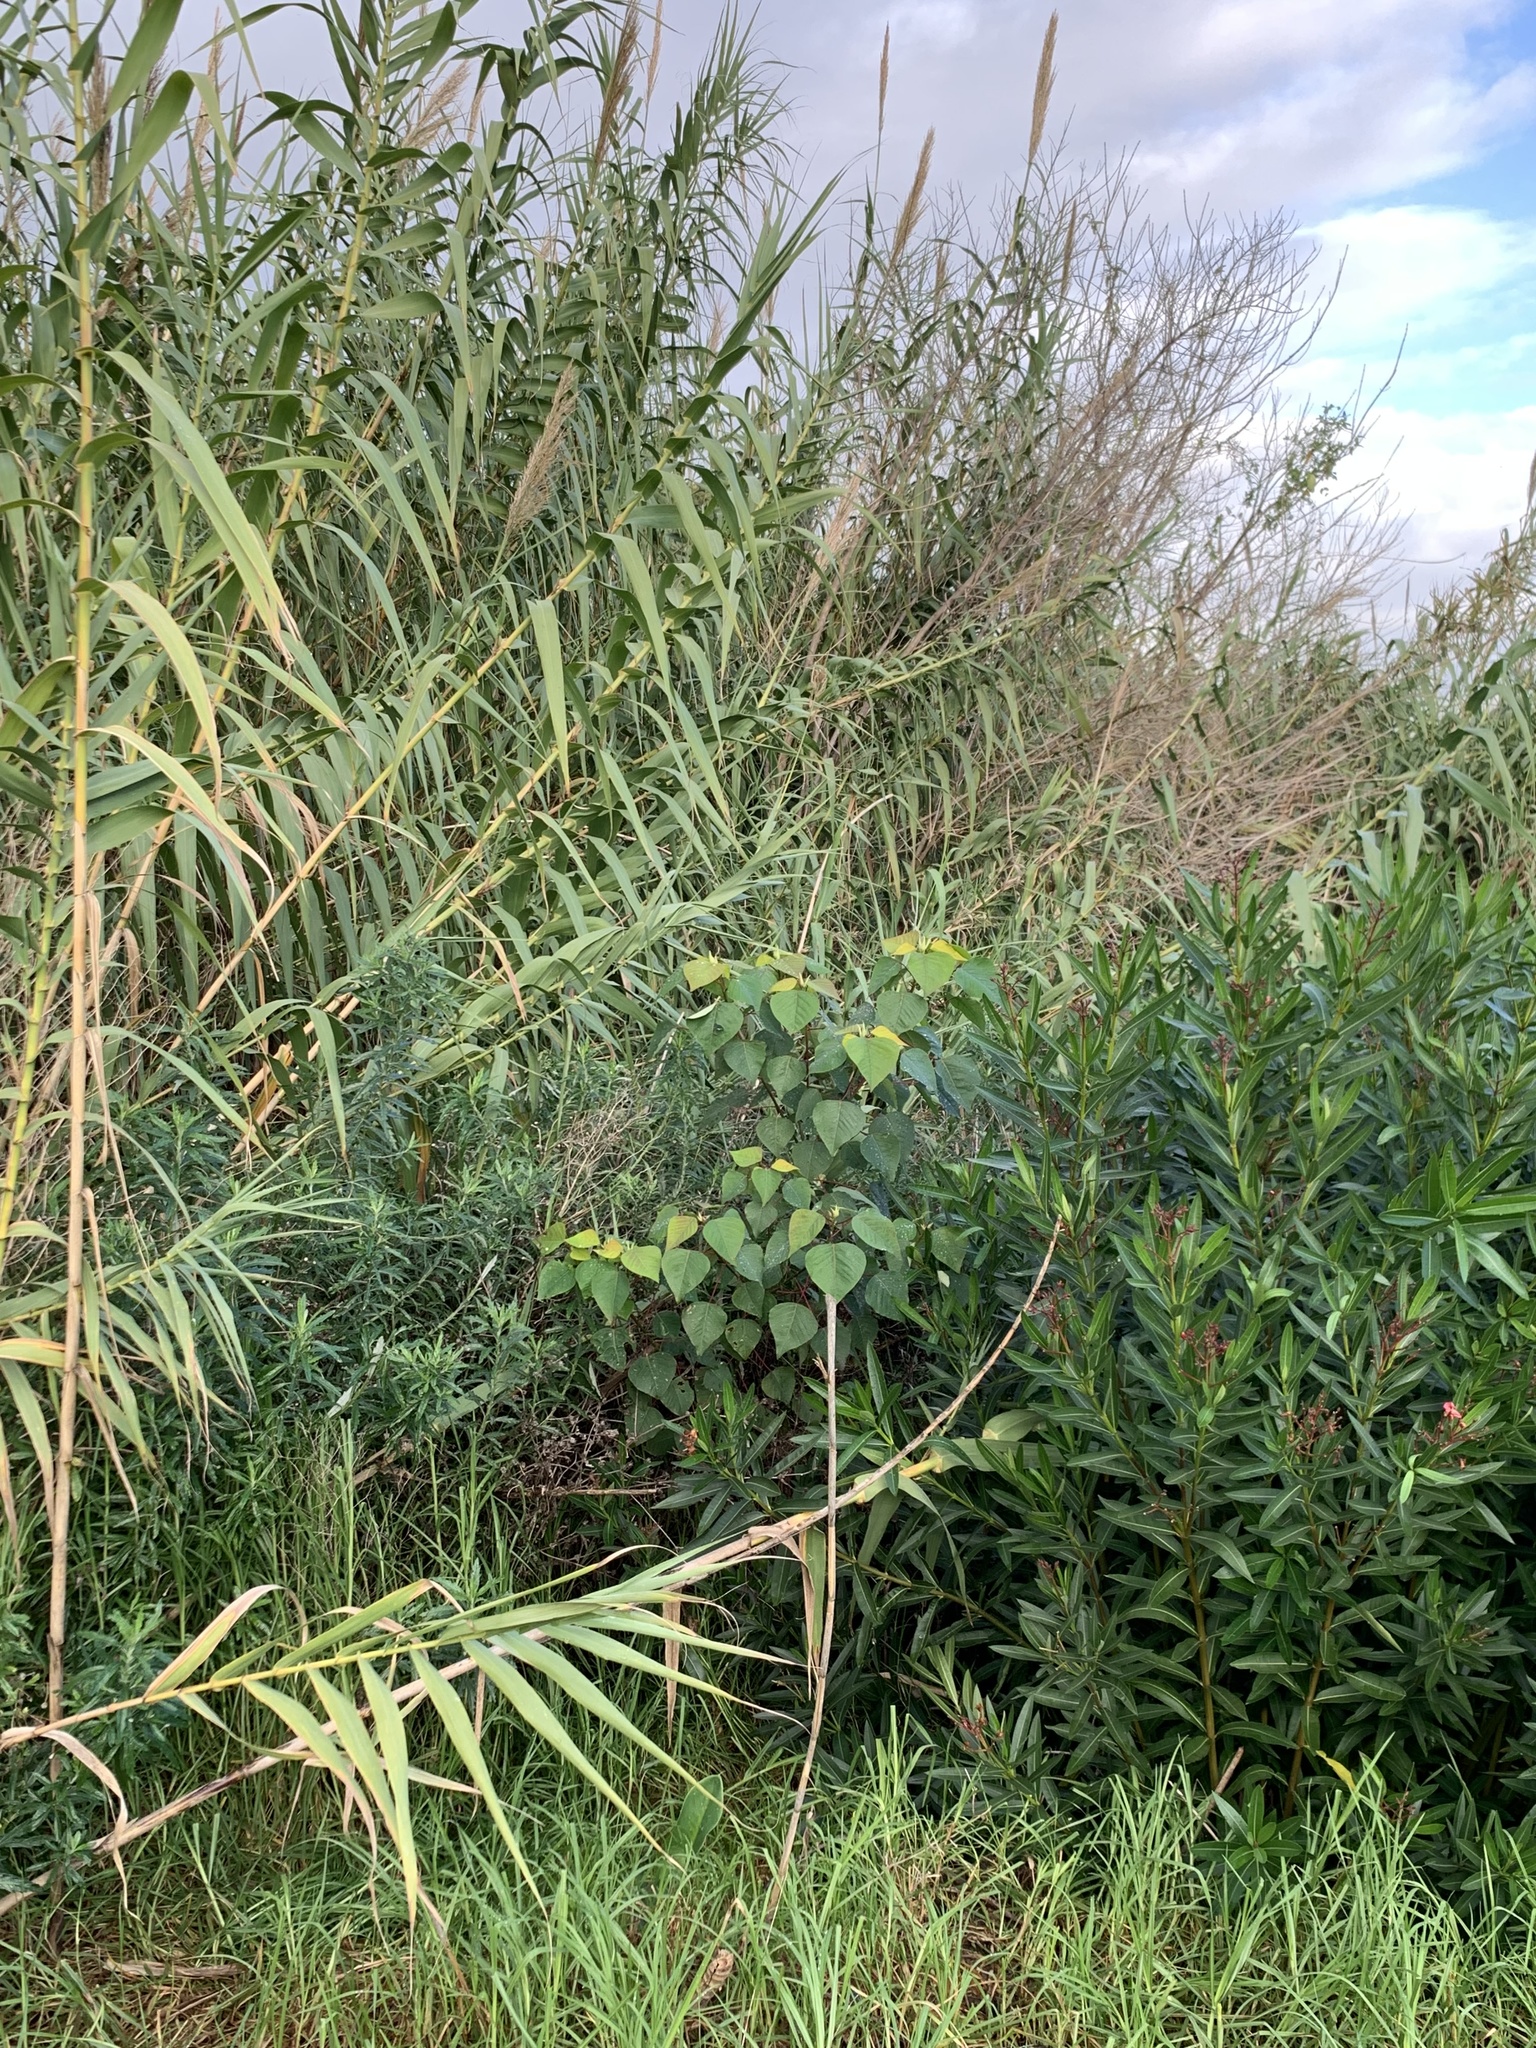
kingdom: Plantae
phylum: Tracheophyta
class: Magnoliopsida
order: Malpighiales
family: Euphorbiaceae
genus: Homalanthus
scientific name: Homalanthus populifolius
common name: Queensland poplar
